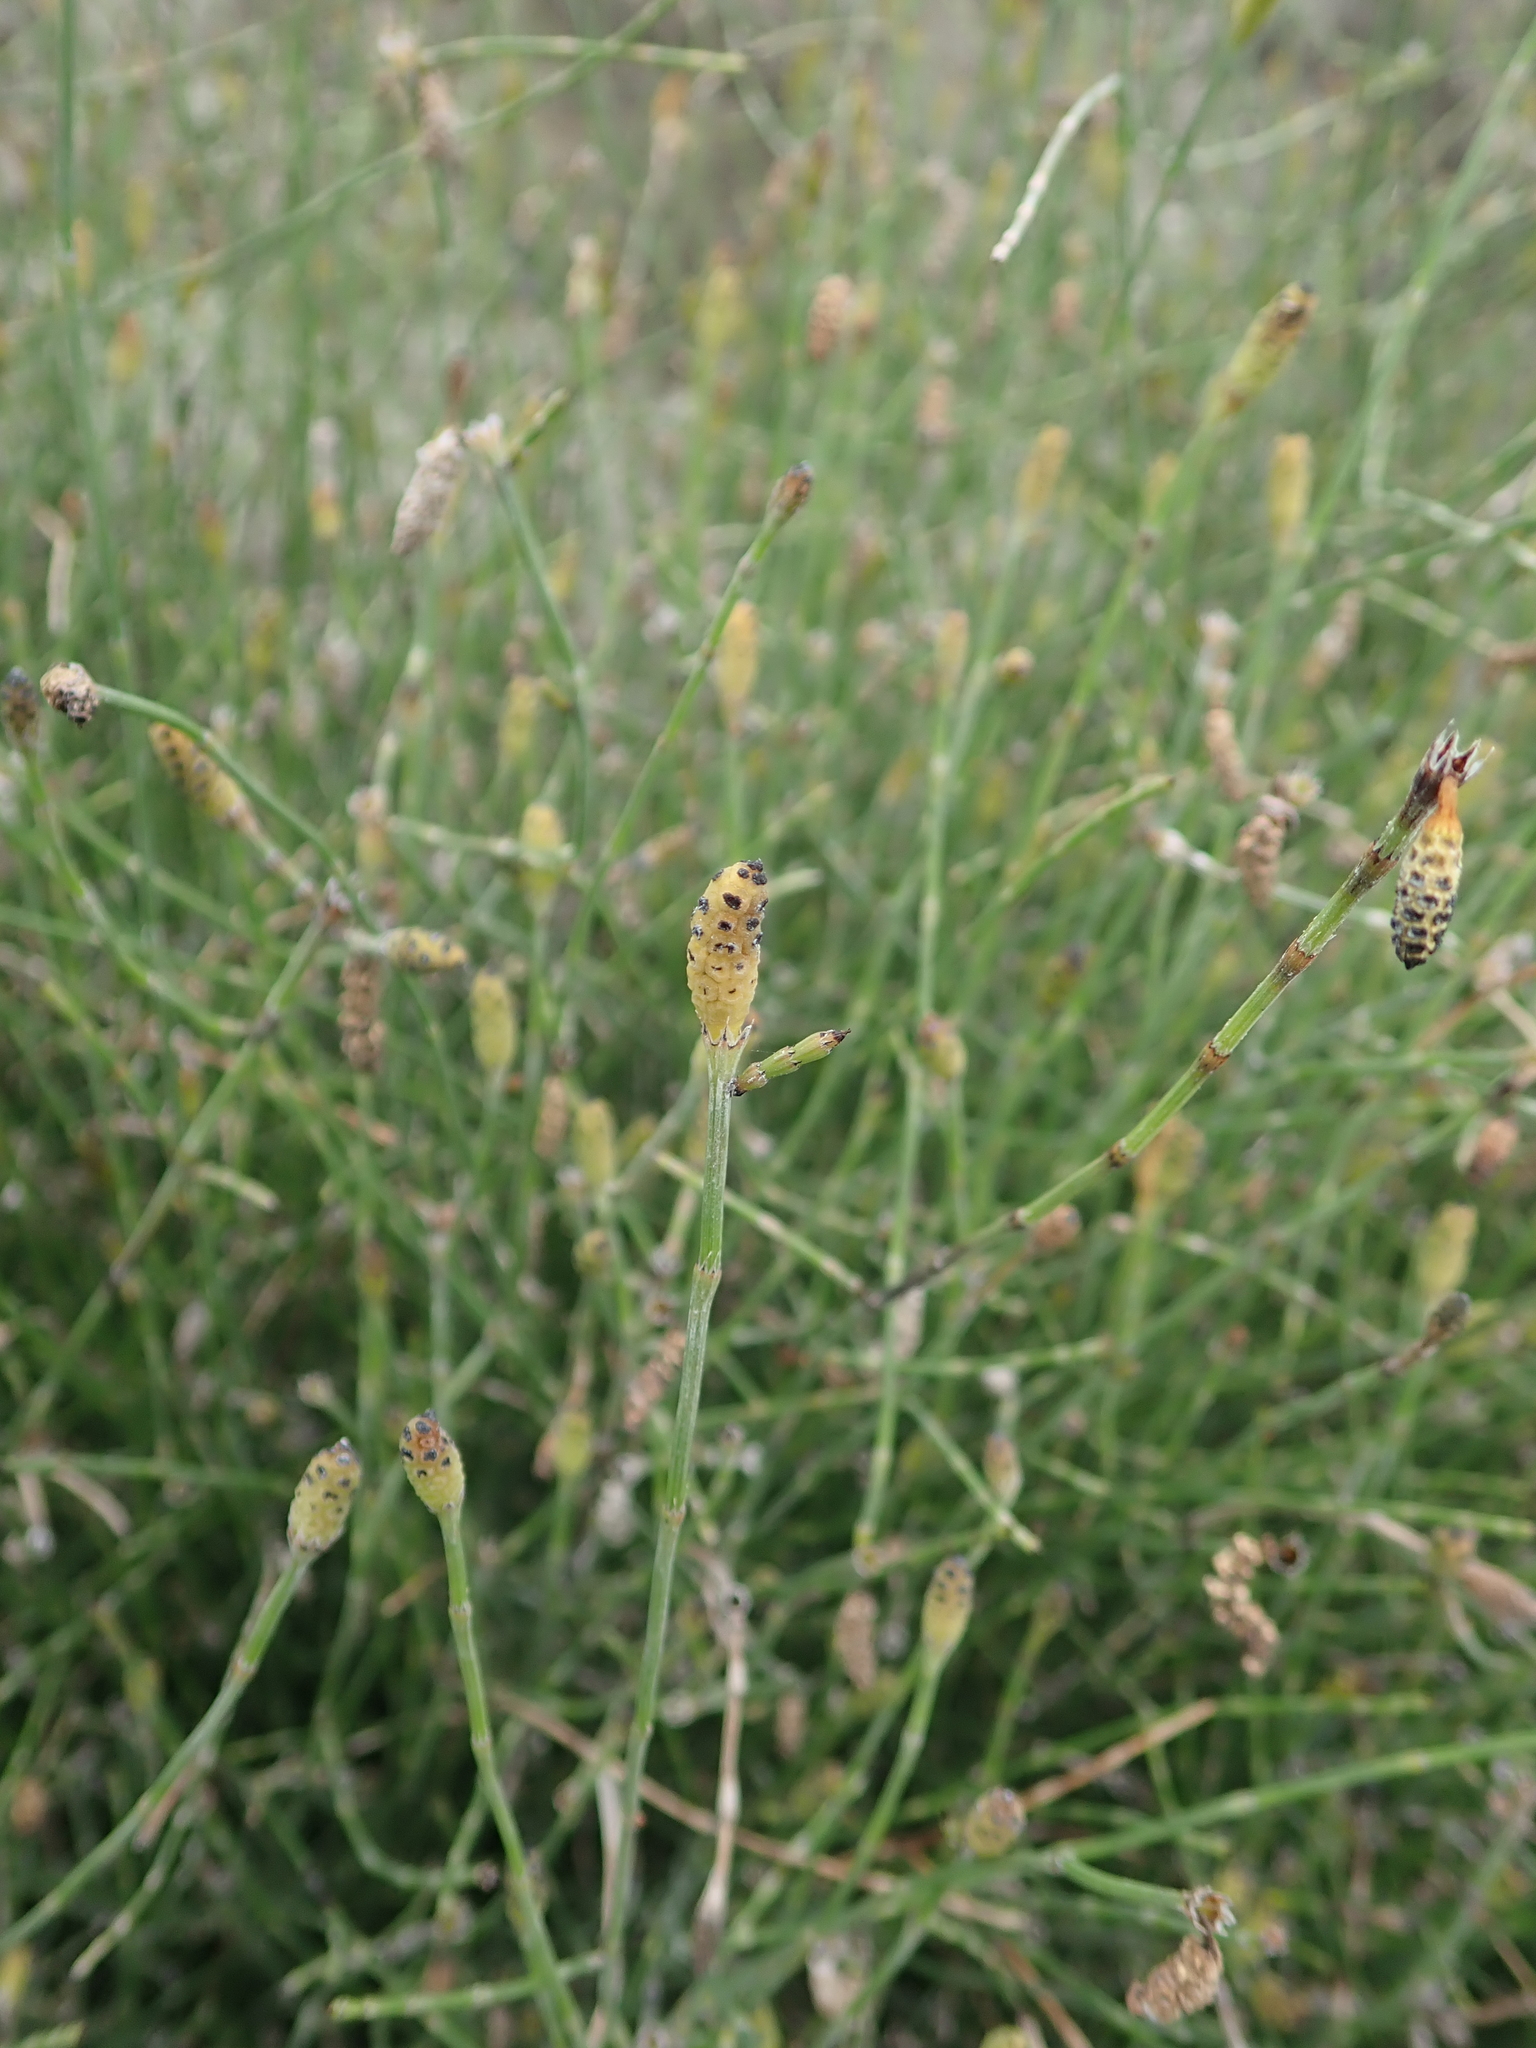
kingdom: Plantae
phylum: Tracheophyta
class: Polypodiopsida
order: Equisetales
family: Equisetaceae
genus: Equisetum
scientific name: Equisetum ramosissimum
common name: Branched horsetail
